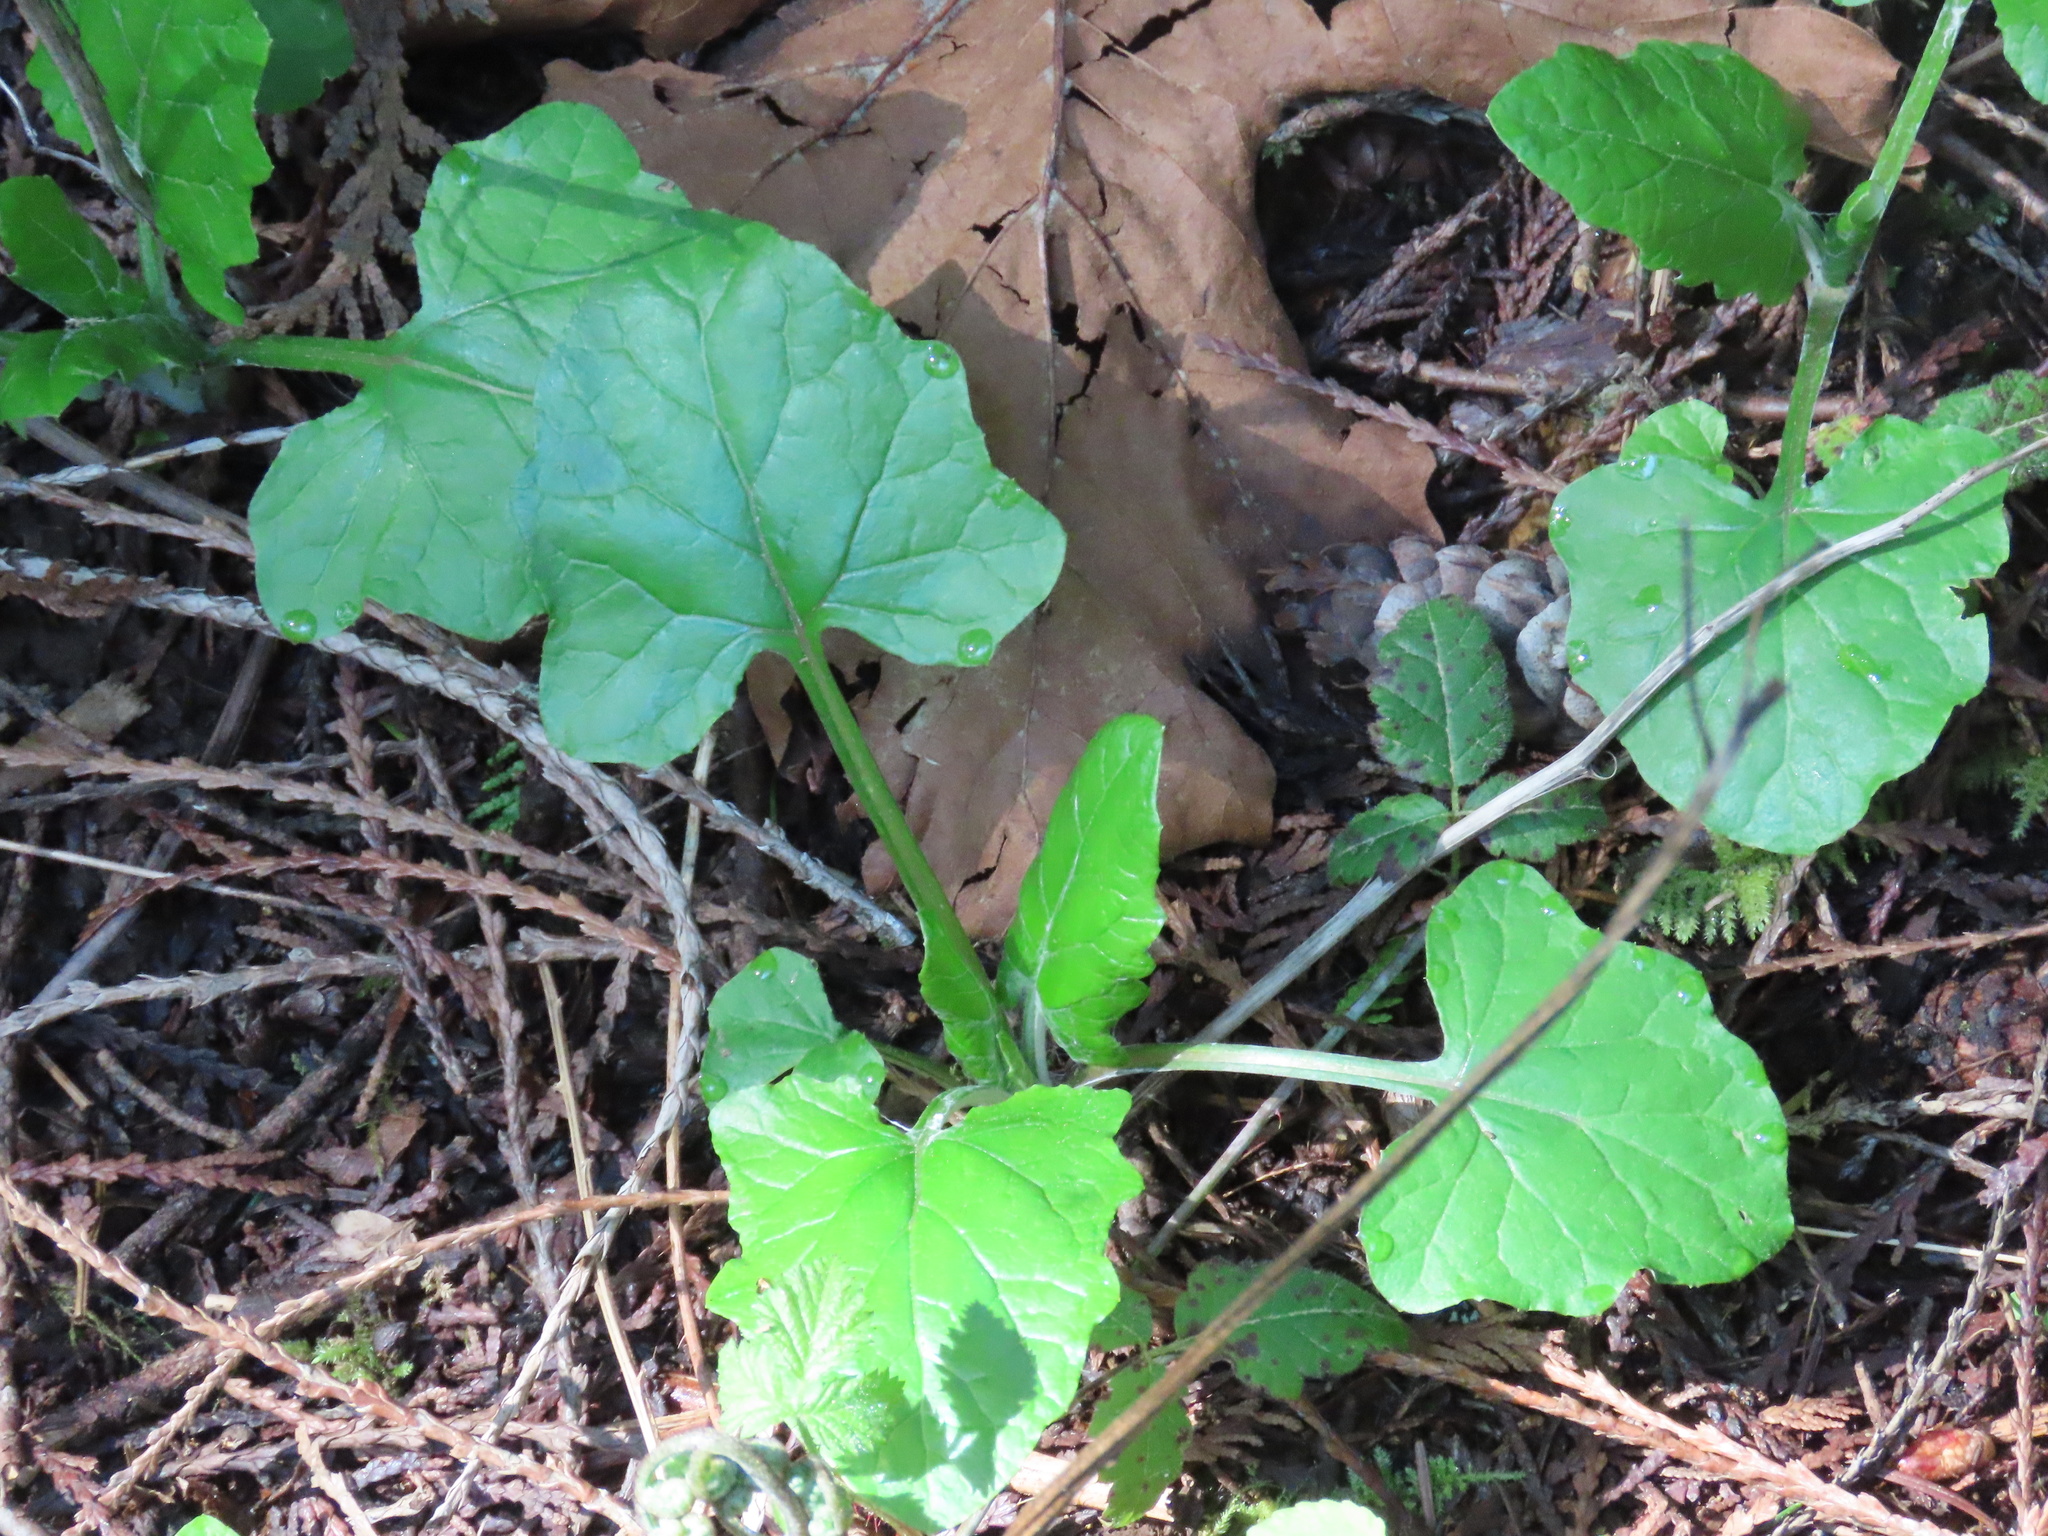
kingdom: Plantae
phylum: Tracheophyta
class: Magnoliopsida
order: Asterales
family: Asteraceae
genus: Adenocaulon
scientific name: Adenocaulon bicolor
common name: Trailplant
